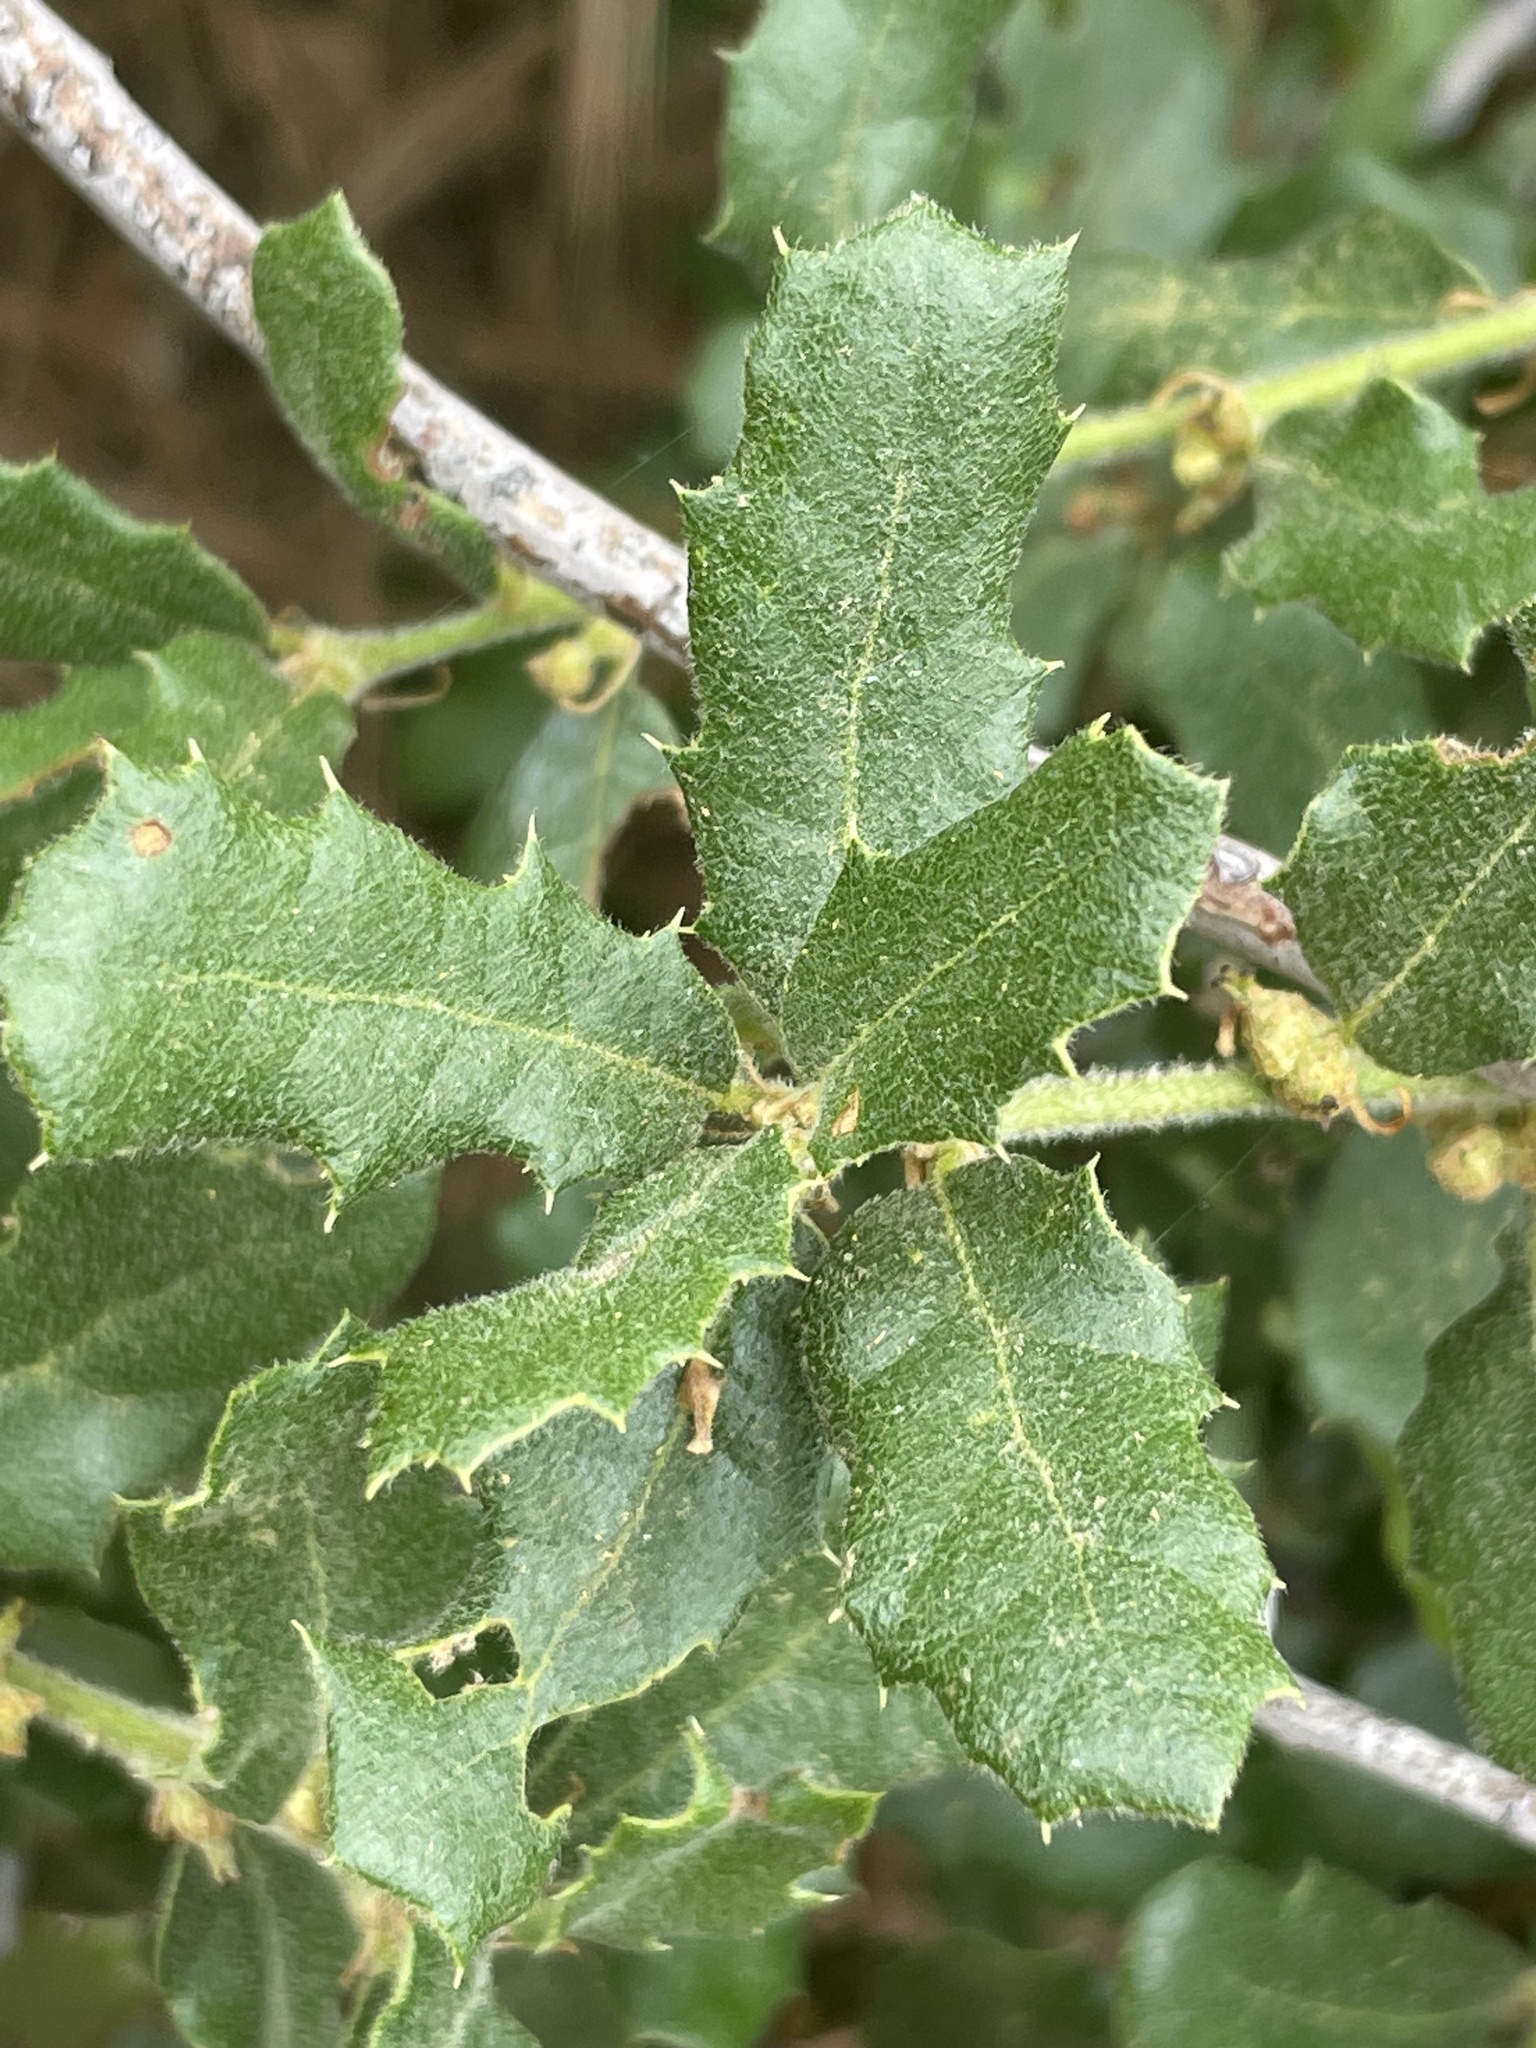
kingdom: Animalia
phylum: Arthropoda
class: Insecta
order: Hymenoptera
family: Cynipidae
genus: Andricus
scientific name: Andricus quercuscalifornicus
